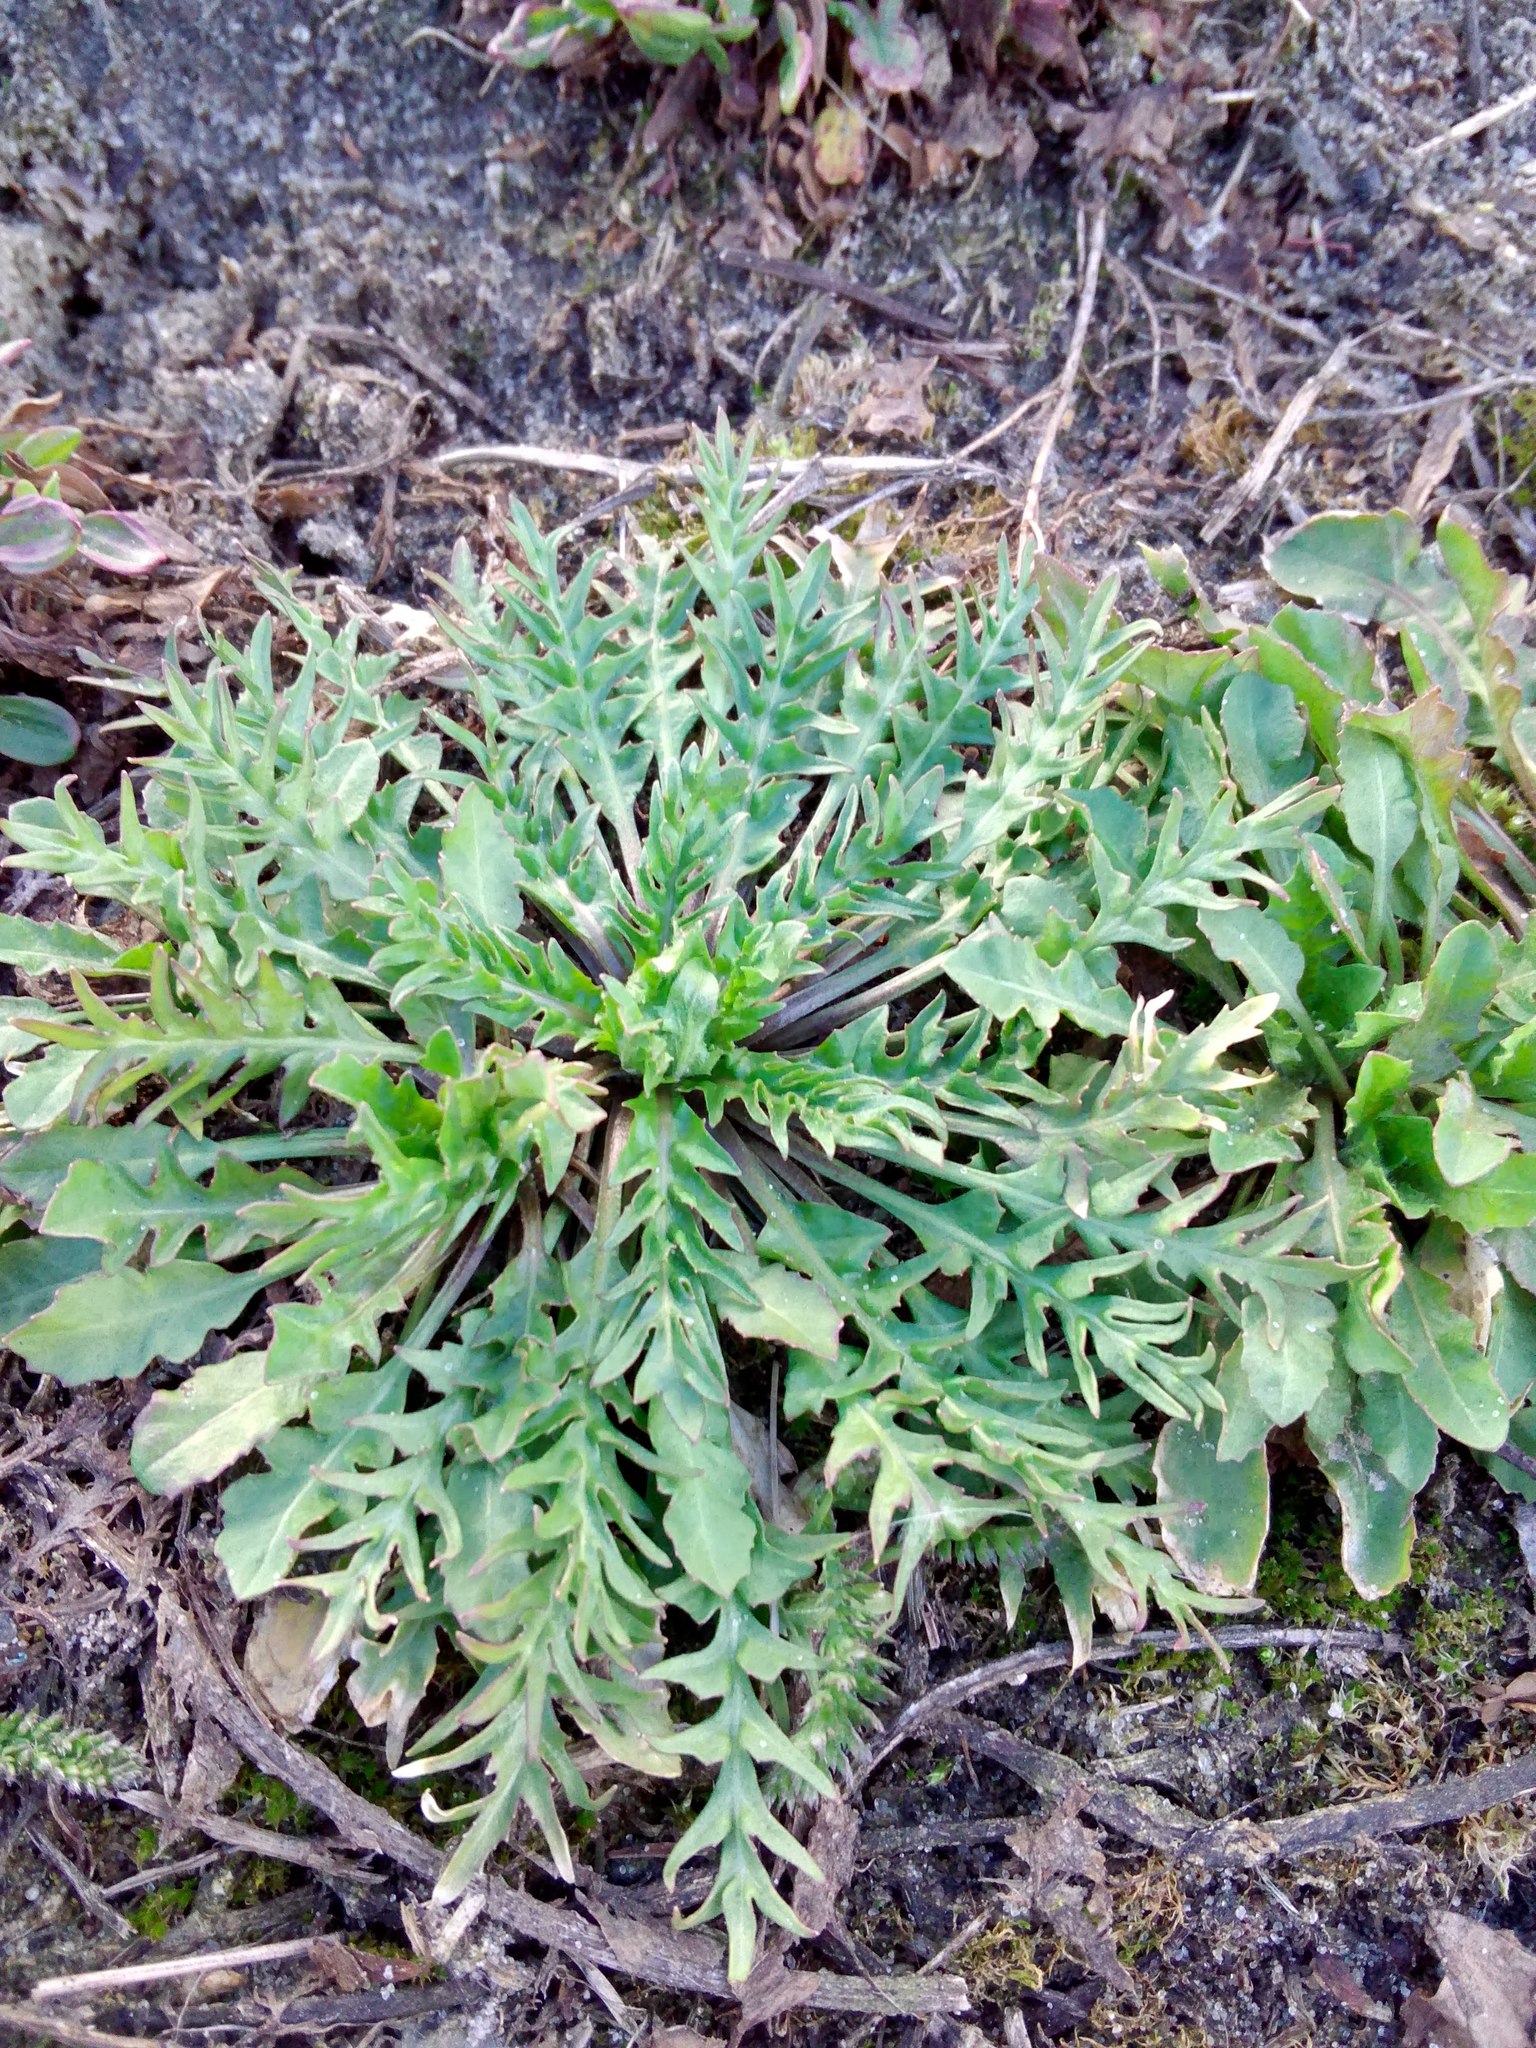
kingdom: Plantae
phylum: Tracheophyta
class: Magnoliopsida
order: Brassicales
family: Brassicaceae
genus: Capsella
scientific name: Capsella bursa-pastoris
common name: Shepherd's purse
